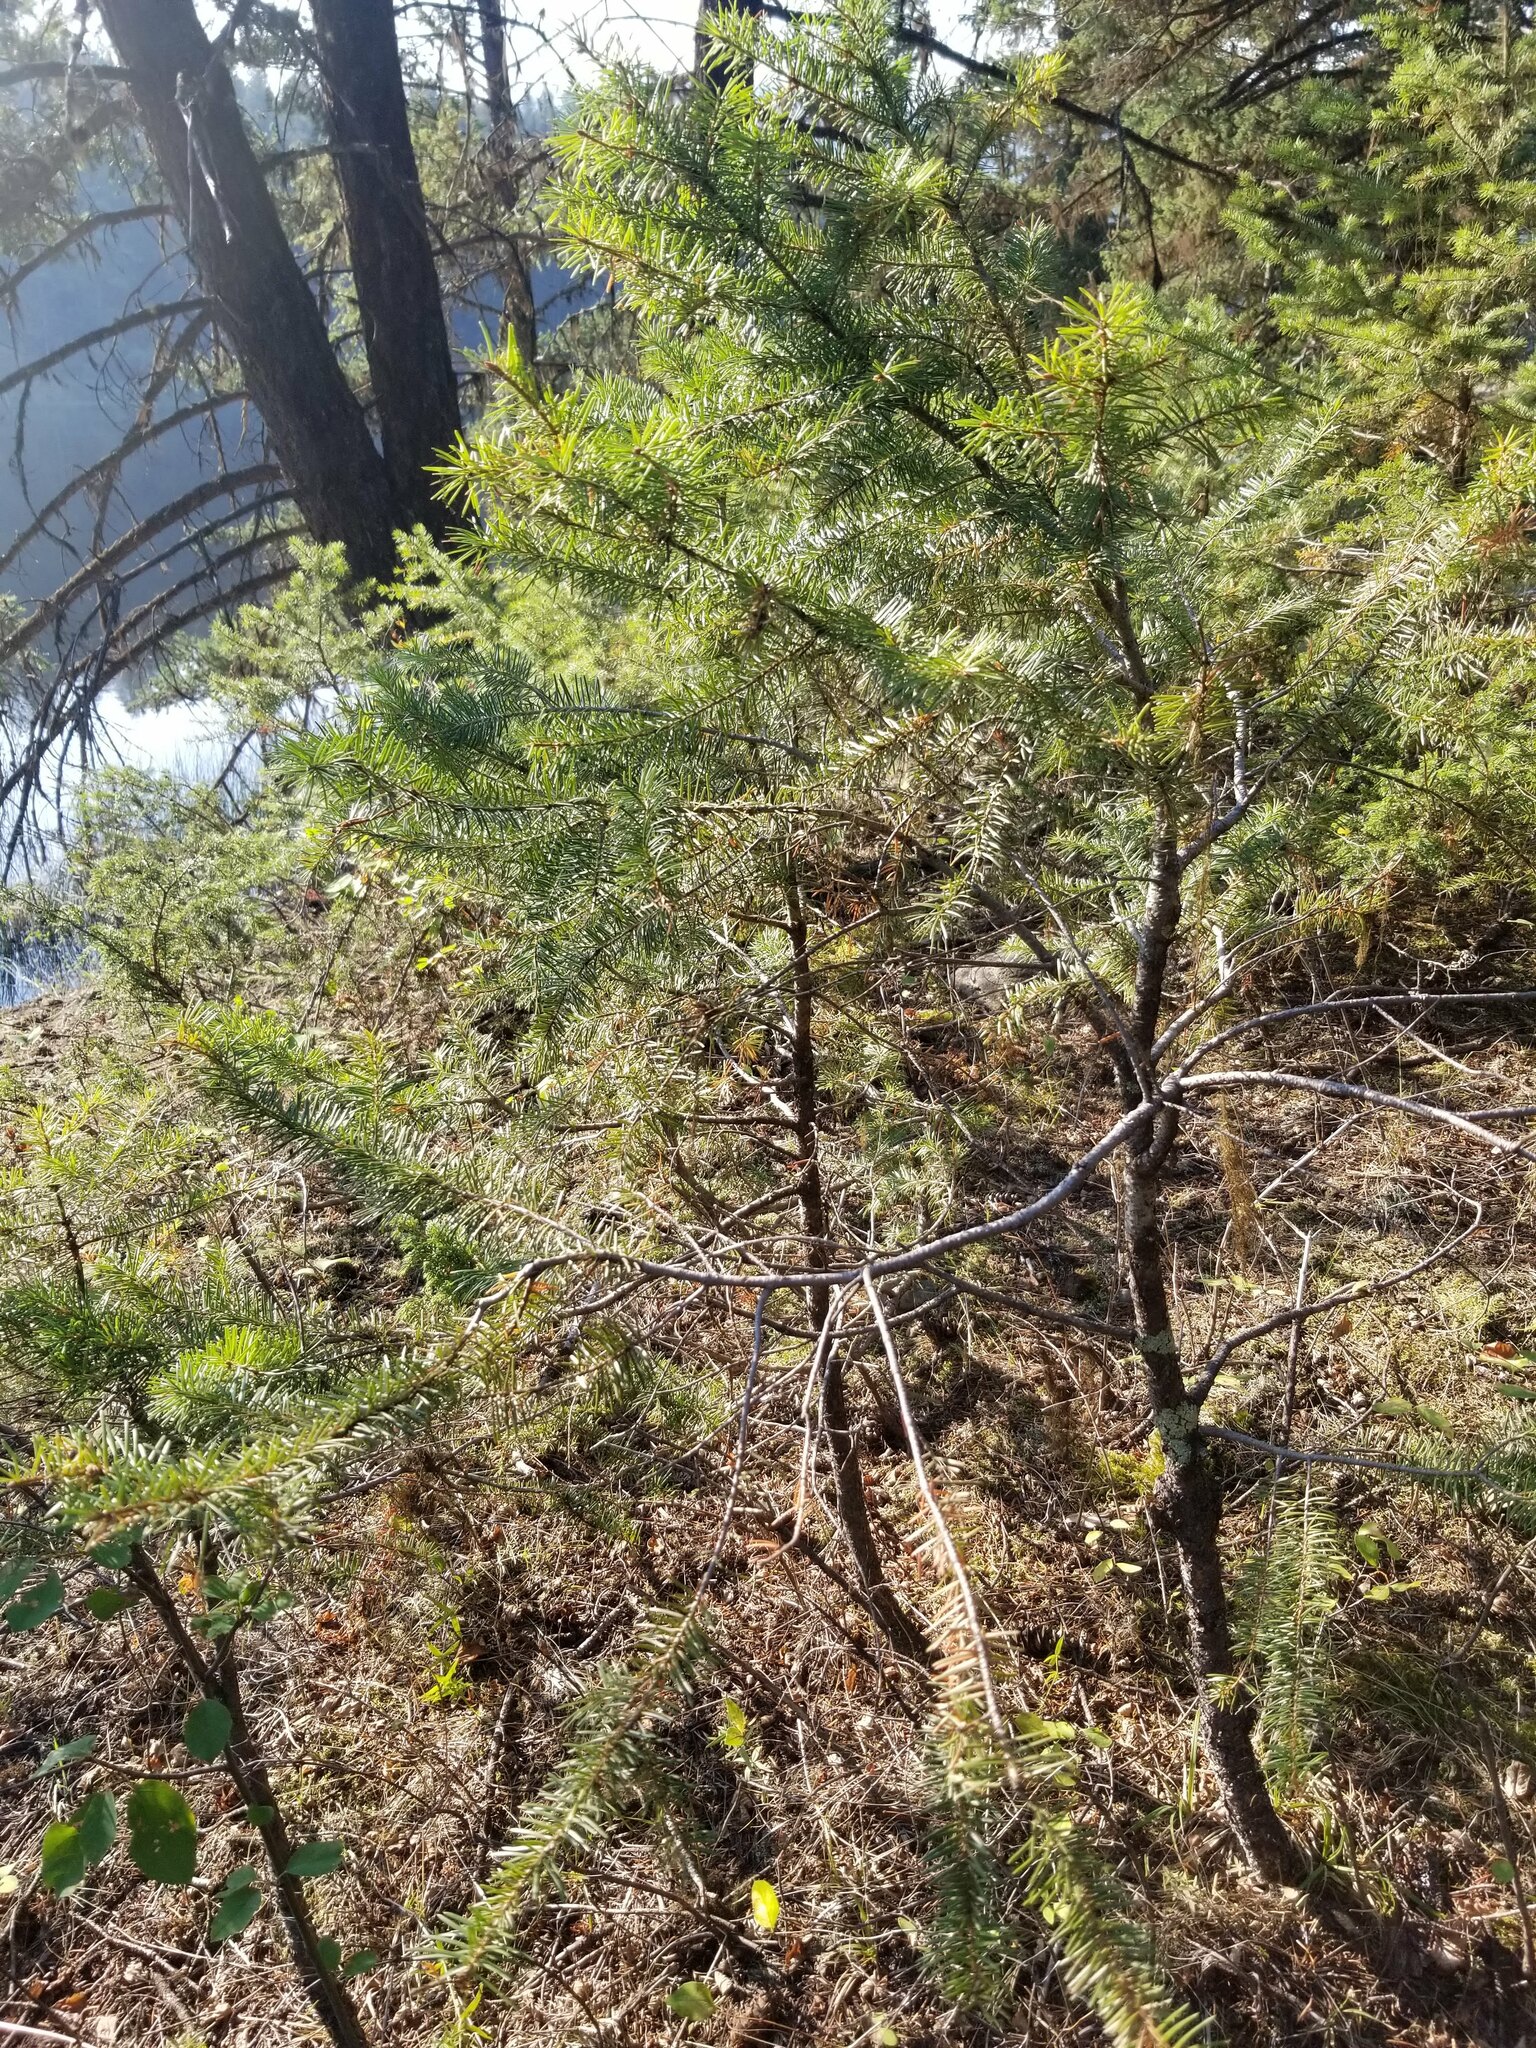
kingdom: Plantae
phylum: Tracheophyta
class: Pinopsida
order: Pinales
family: Pinaceae
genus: Pseudotsuga
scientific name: Pseudotsuga menziesii
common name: Douglas fir
